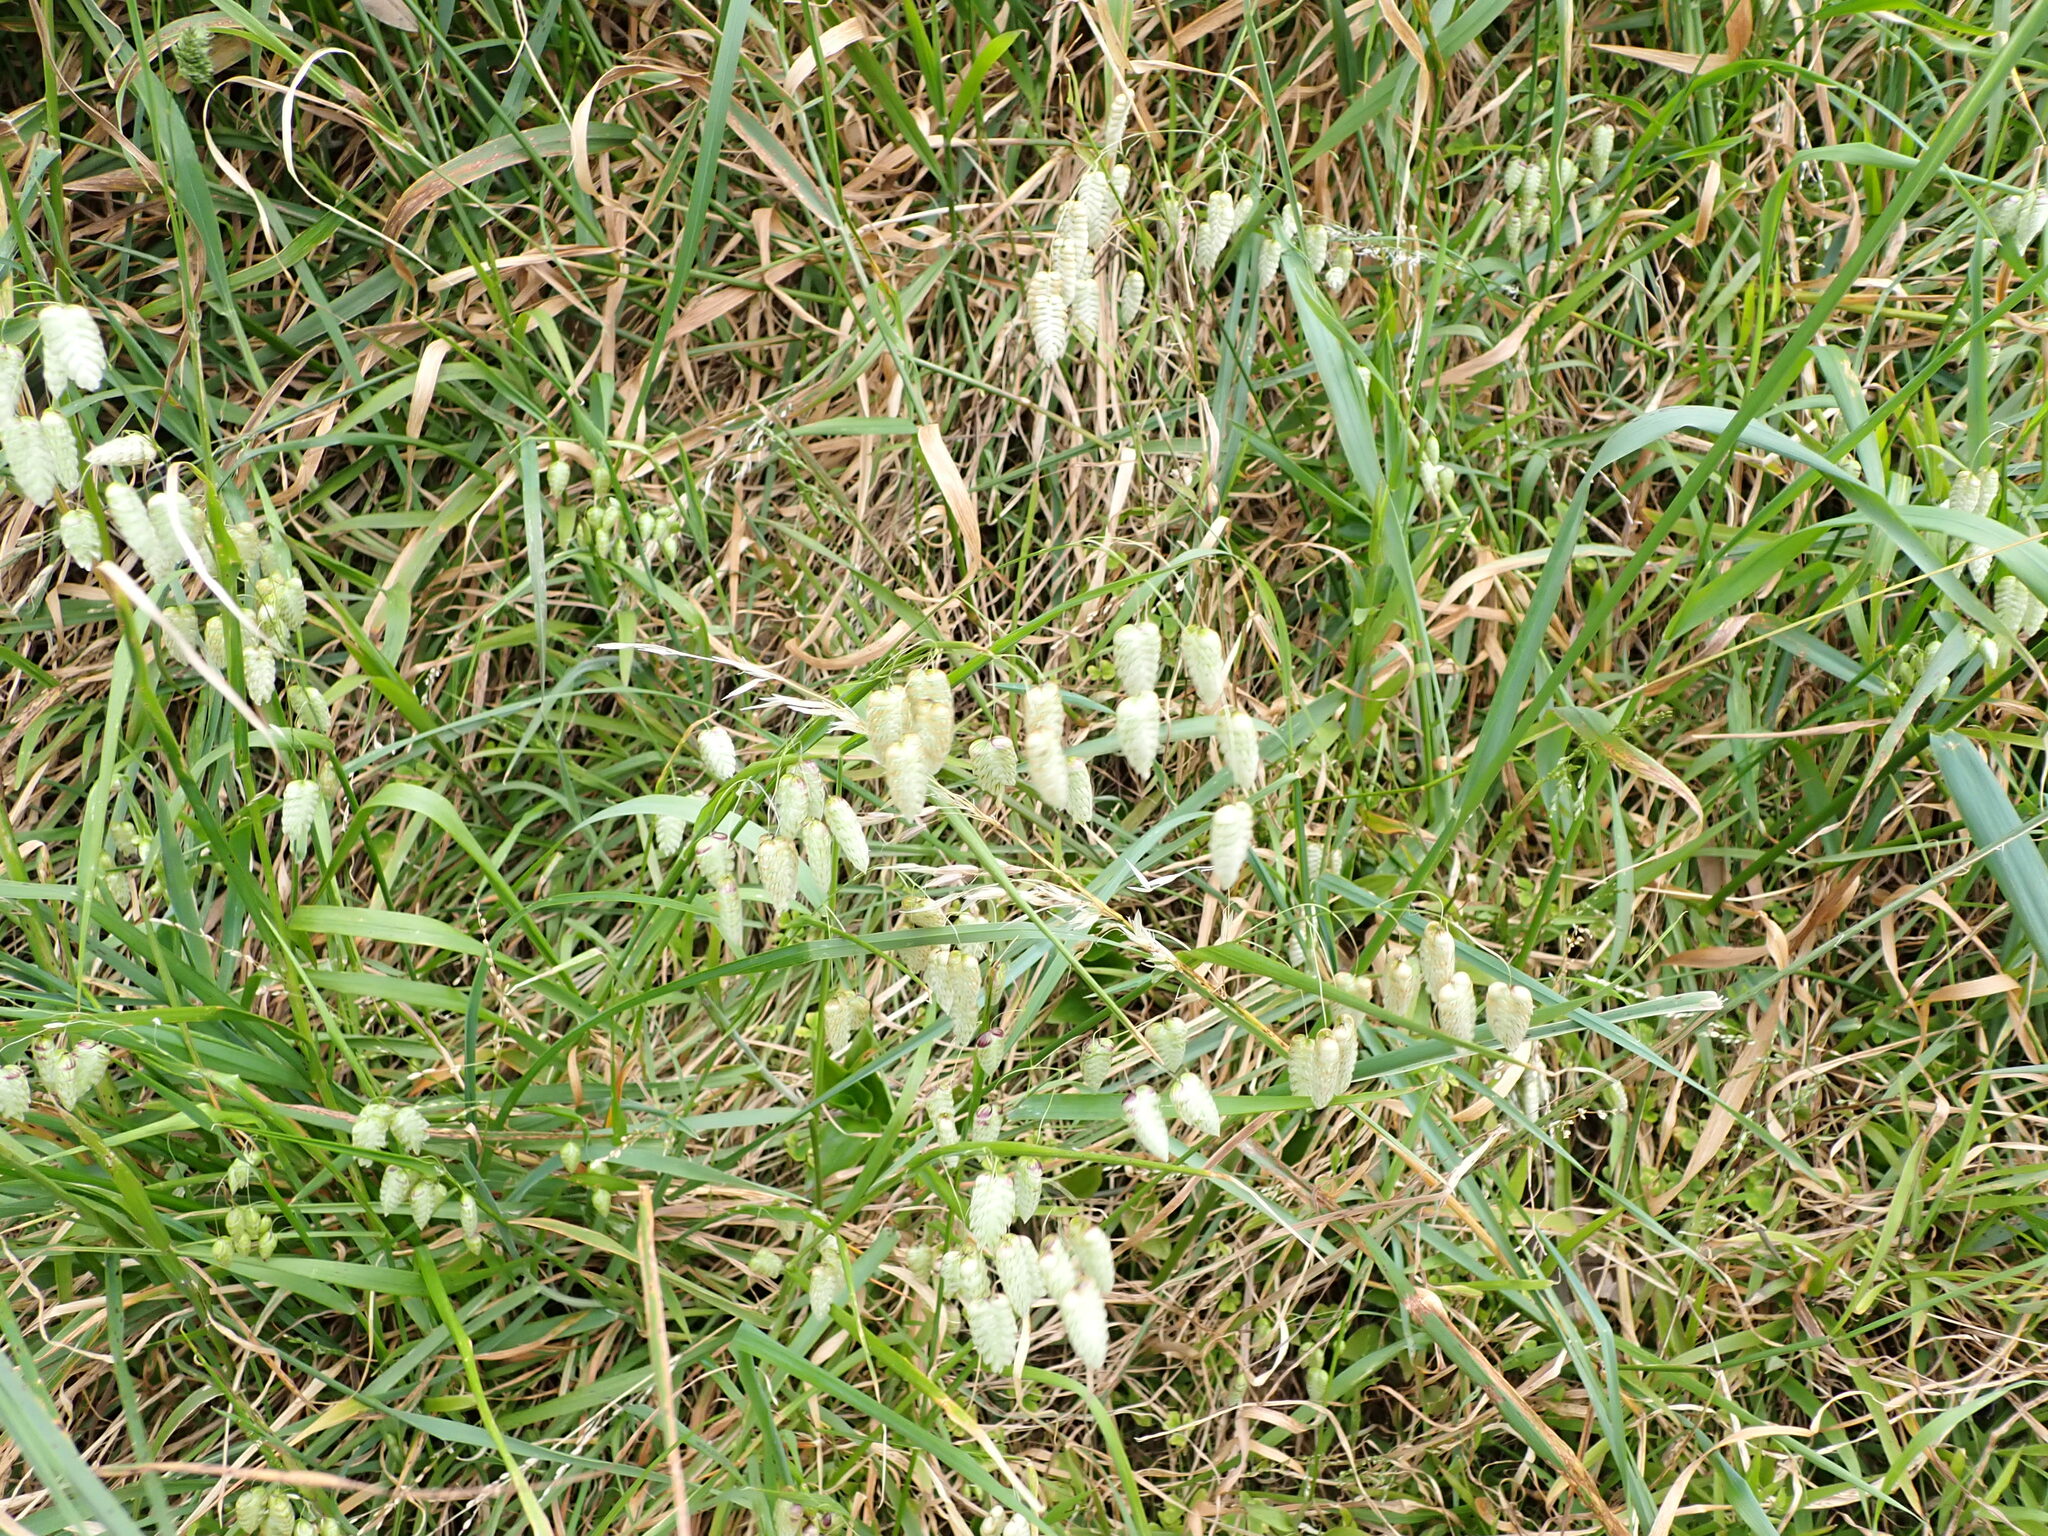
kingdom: Plantae
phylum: Tracheophyta
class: Liliopsida
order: Poales
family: Poaceae
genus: Briza
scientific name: Briza maxima
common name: Big quakinggrass
